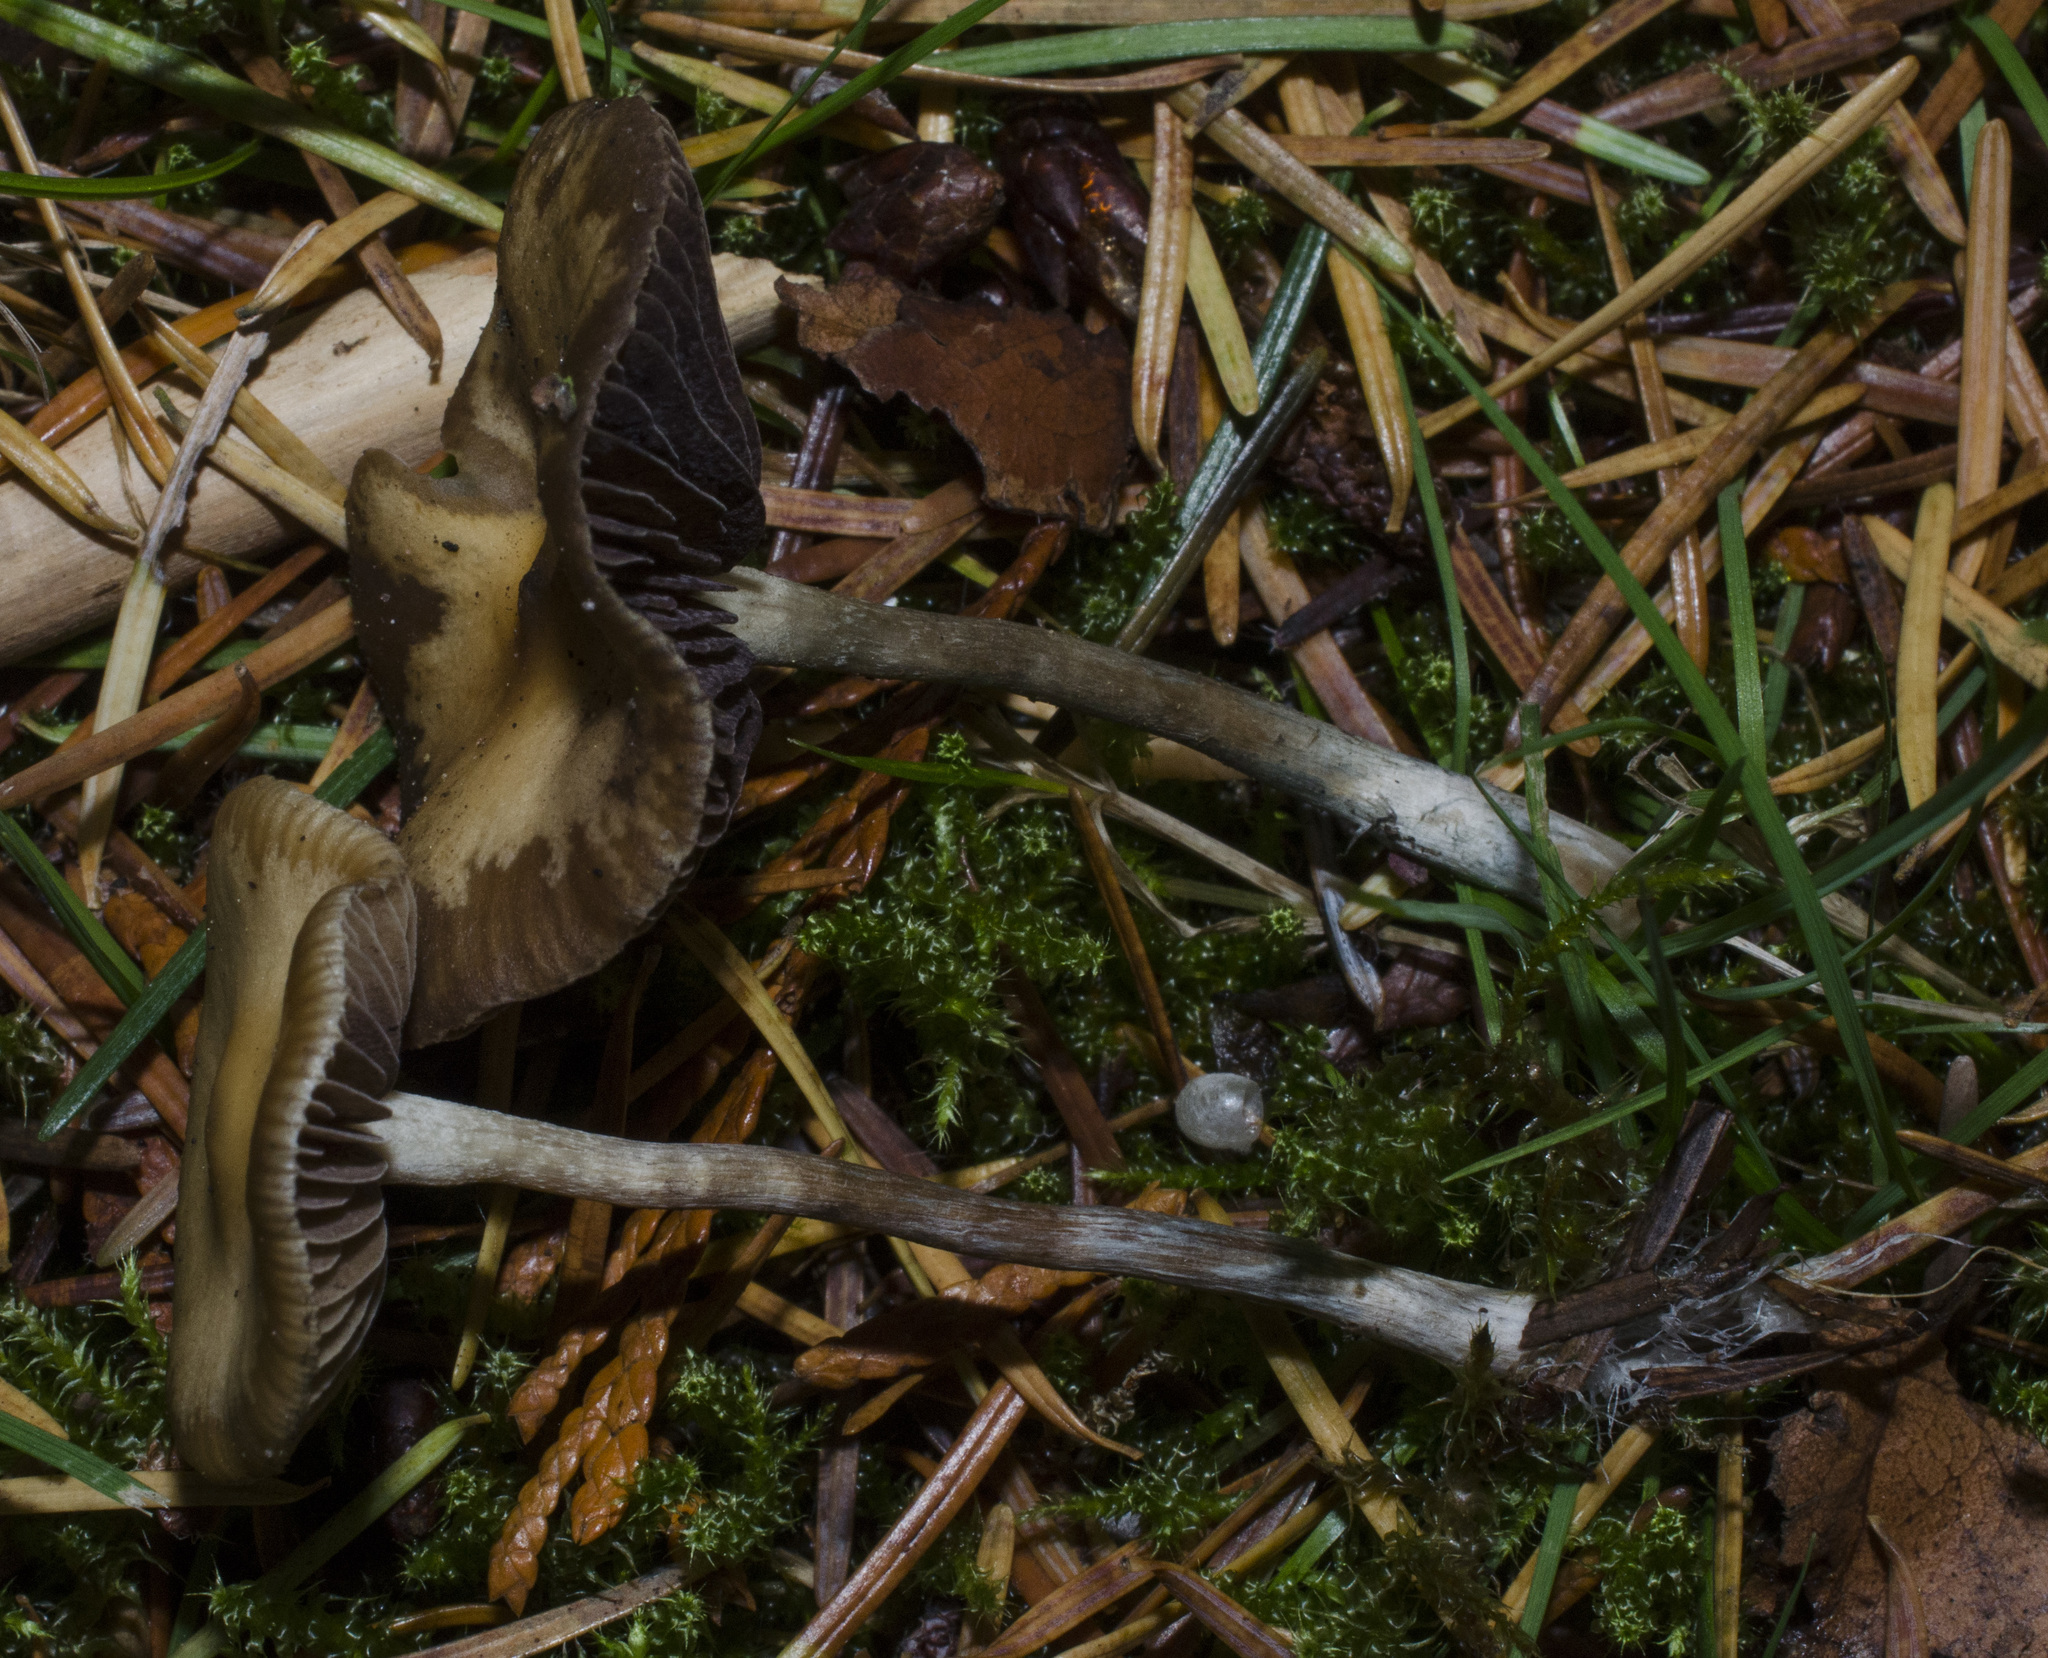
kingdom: Fungi
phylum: Basidiomycota
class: Agaricomycetes
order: Agaricales
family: Hymenogastraceae
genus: Psilocybe
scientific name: Psilocybe cyanescens
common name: Blueleg brownie
